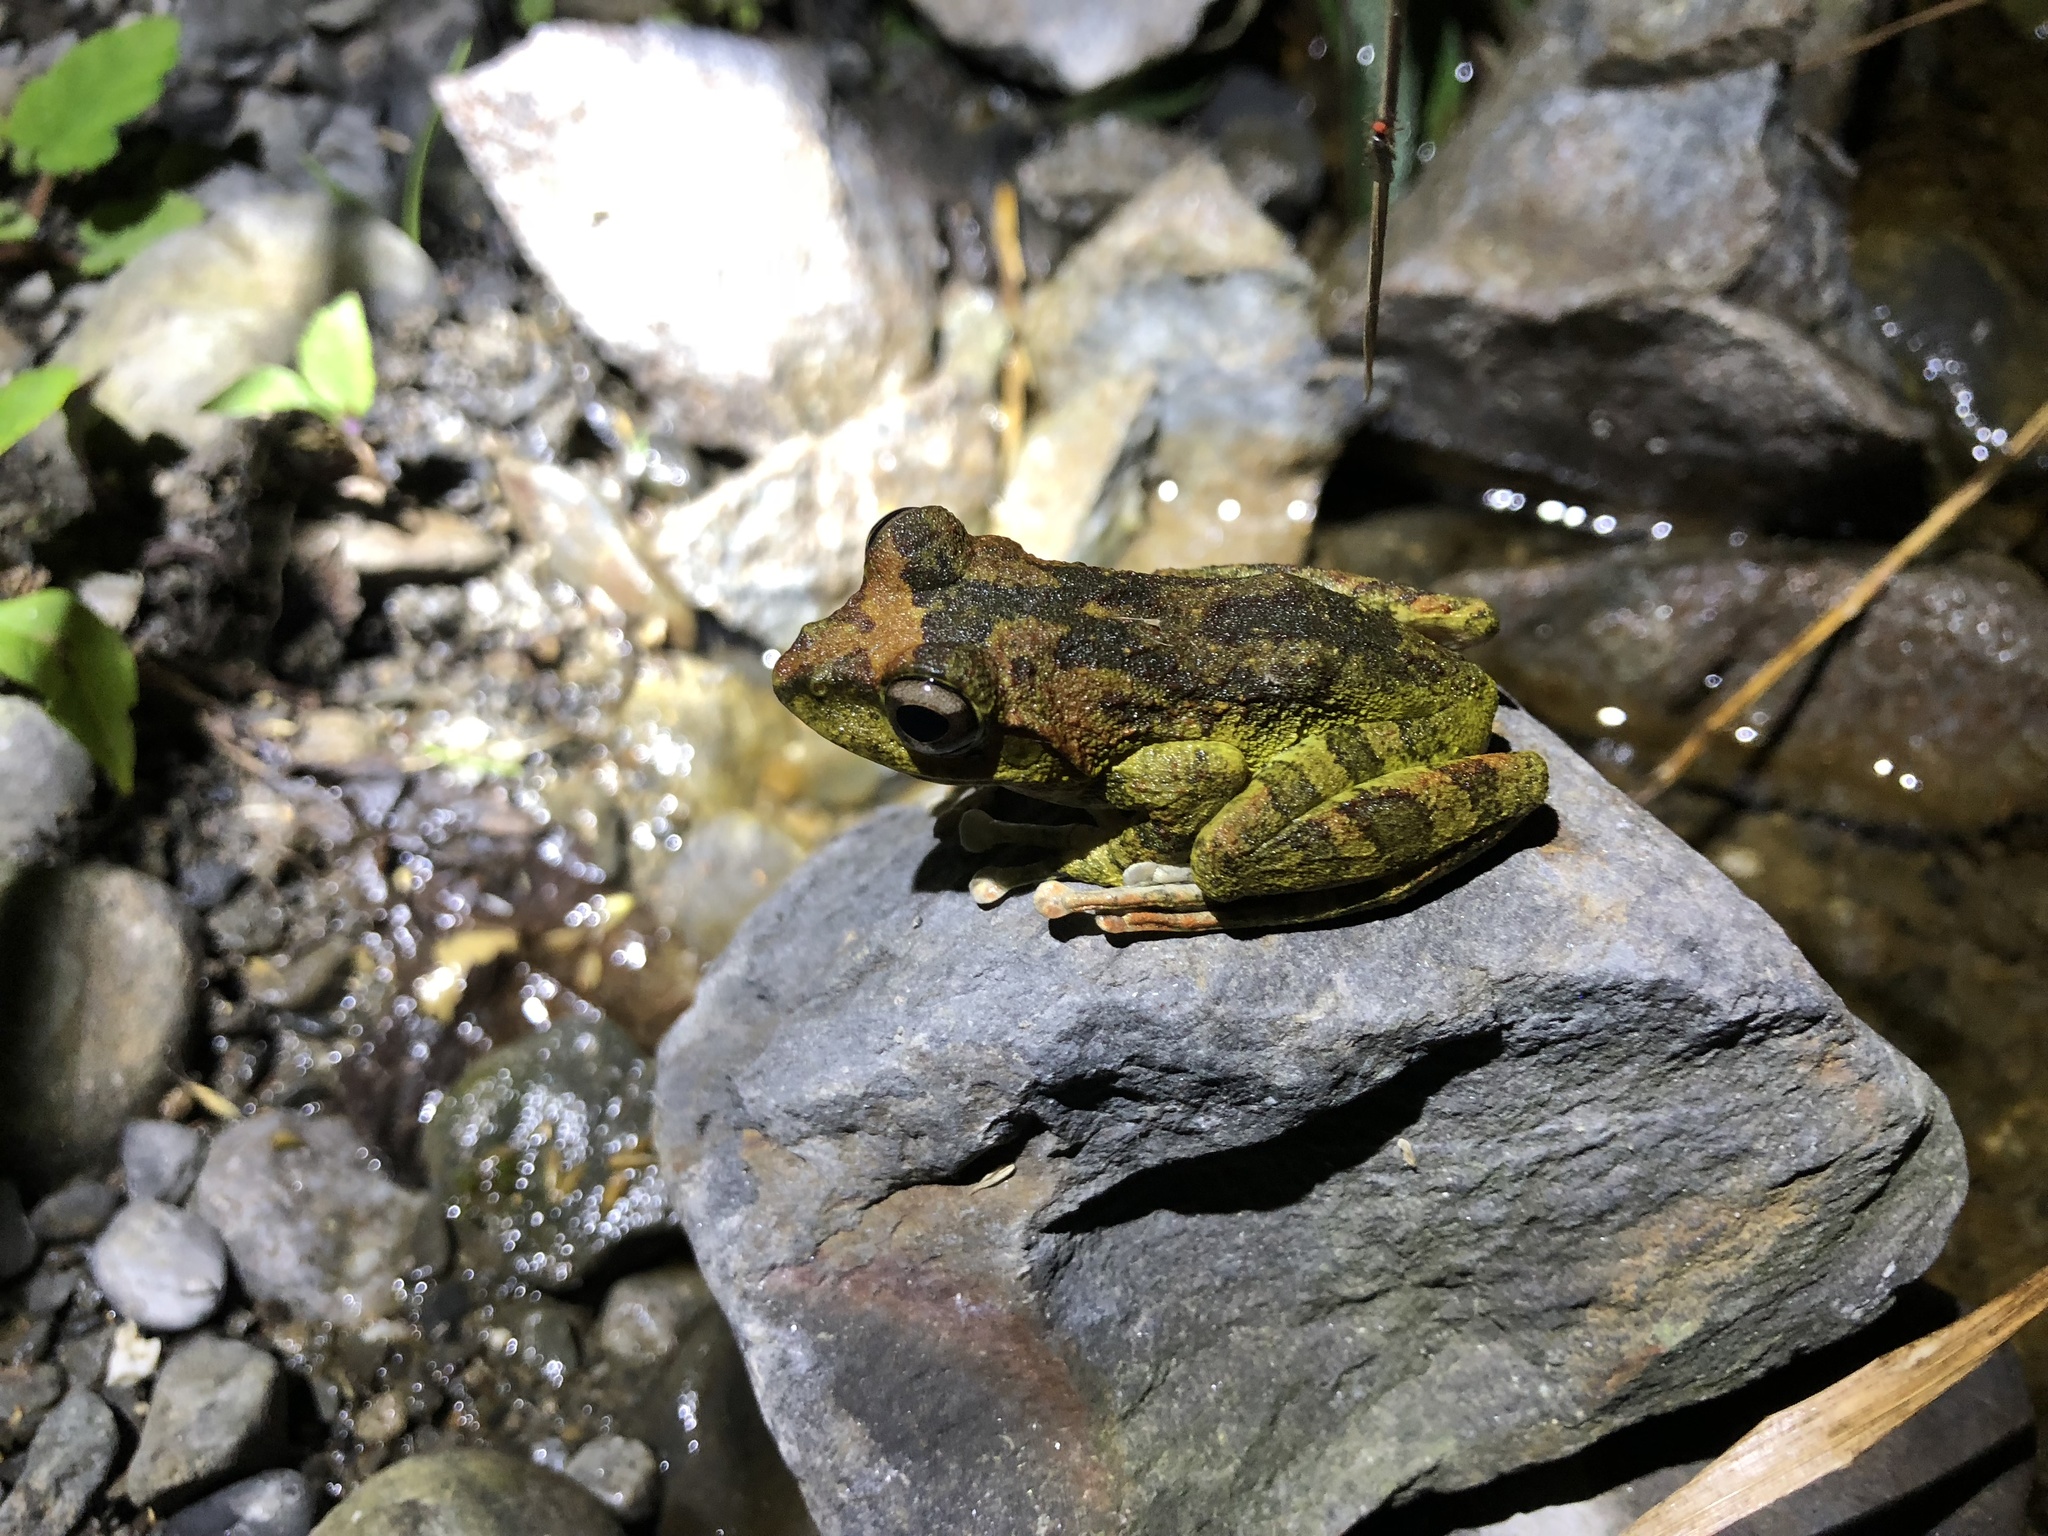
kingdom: Animalia
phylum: Chordata
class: Amphibia
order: Anura
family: Rhacophoridae
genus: Buergeria
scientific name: Buergeria robusta
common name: Brown treefrog
